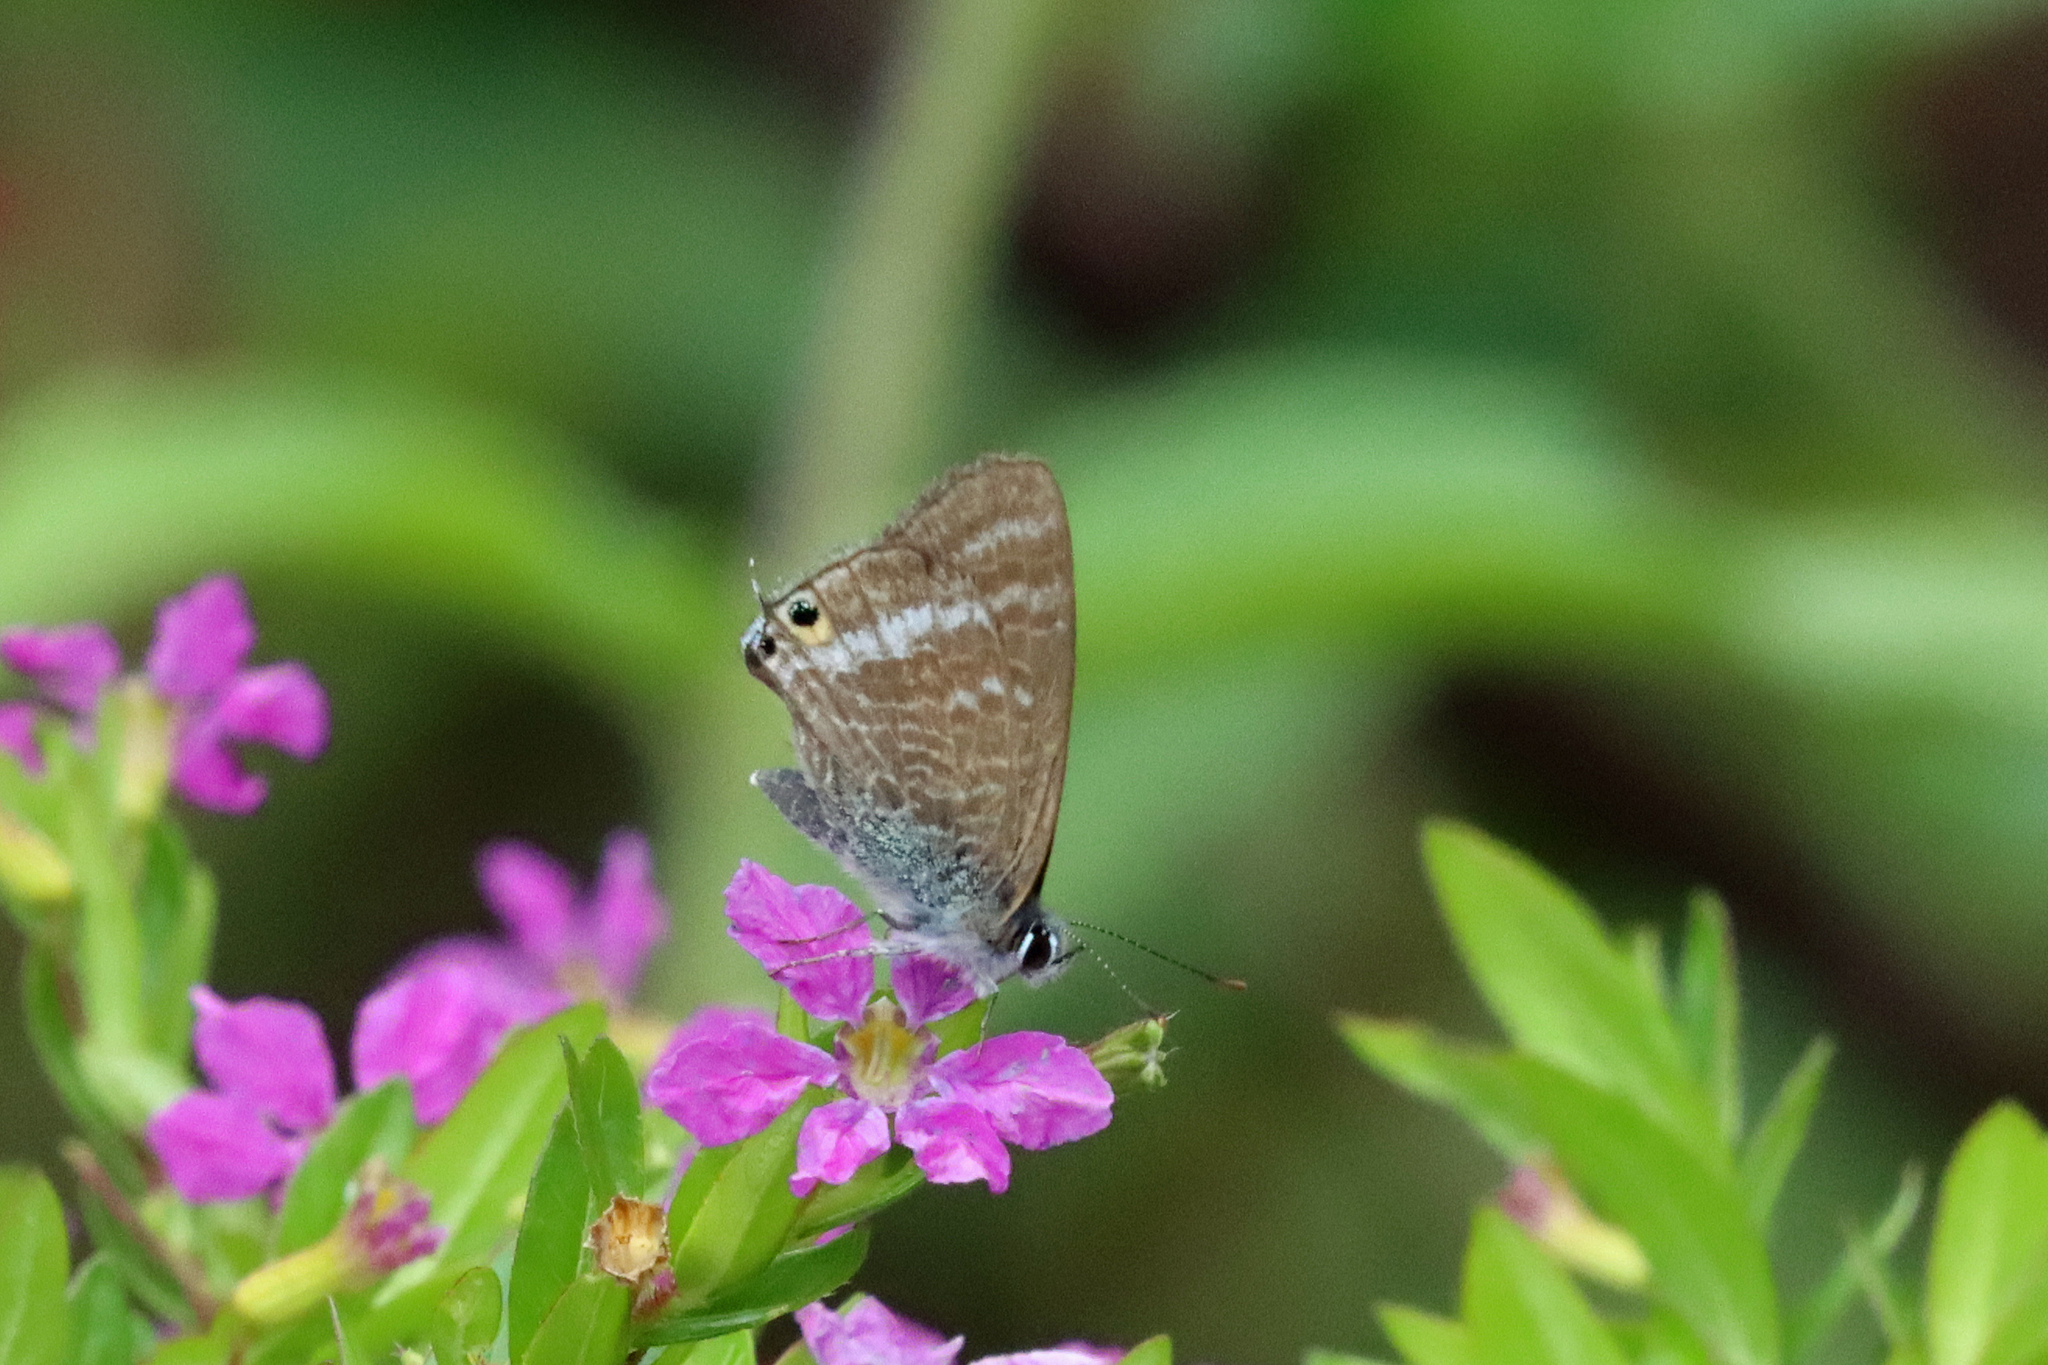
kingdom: Animalia
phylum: Arthropoda
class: Insecta
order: Lepidoptera
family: Lycaenidae
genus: Lampides
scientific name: Lampides boeticus
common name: Long-tailed blue
